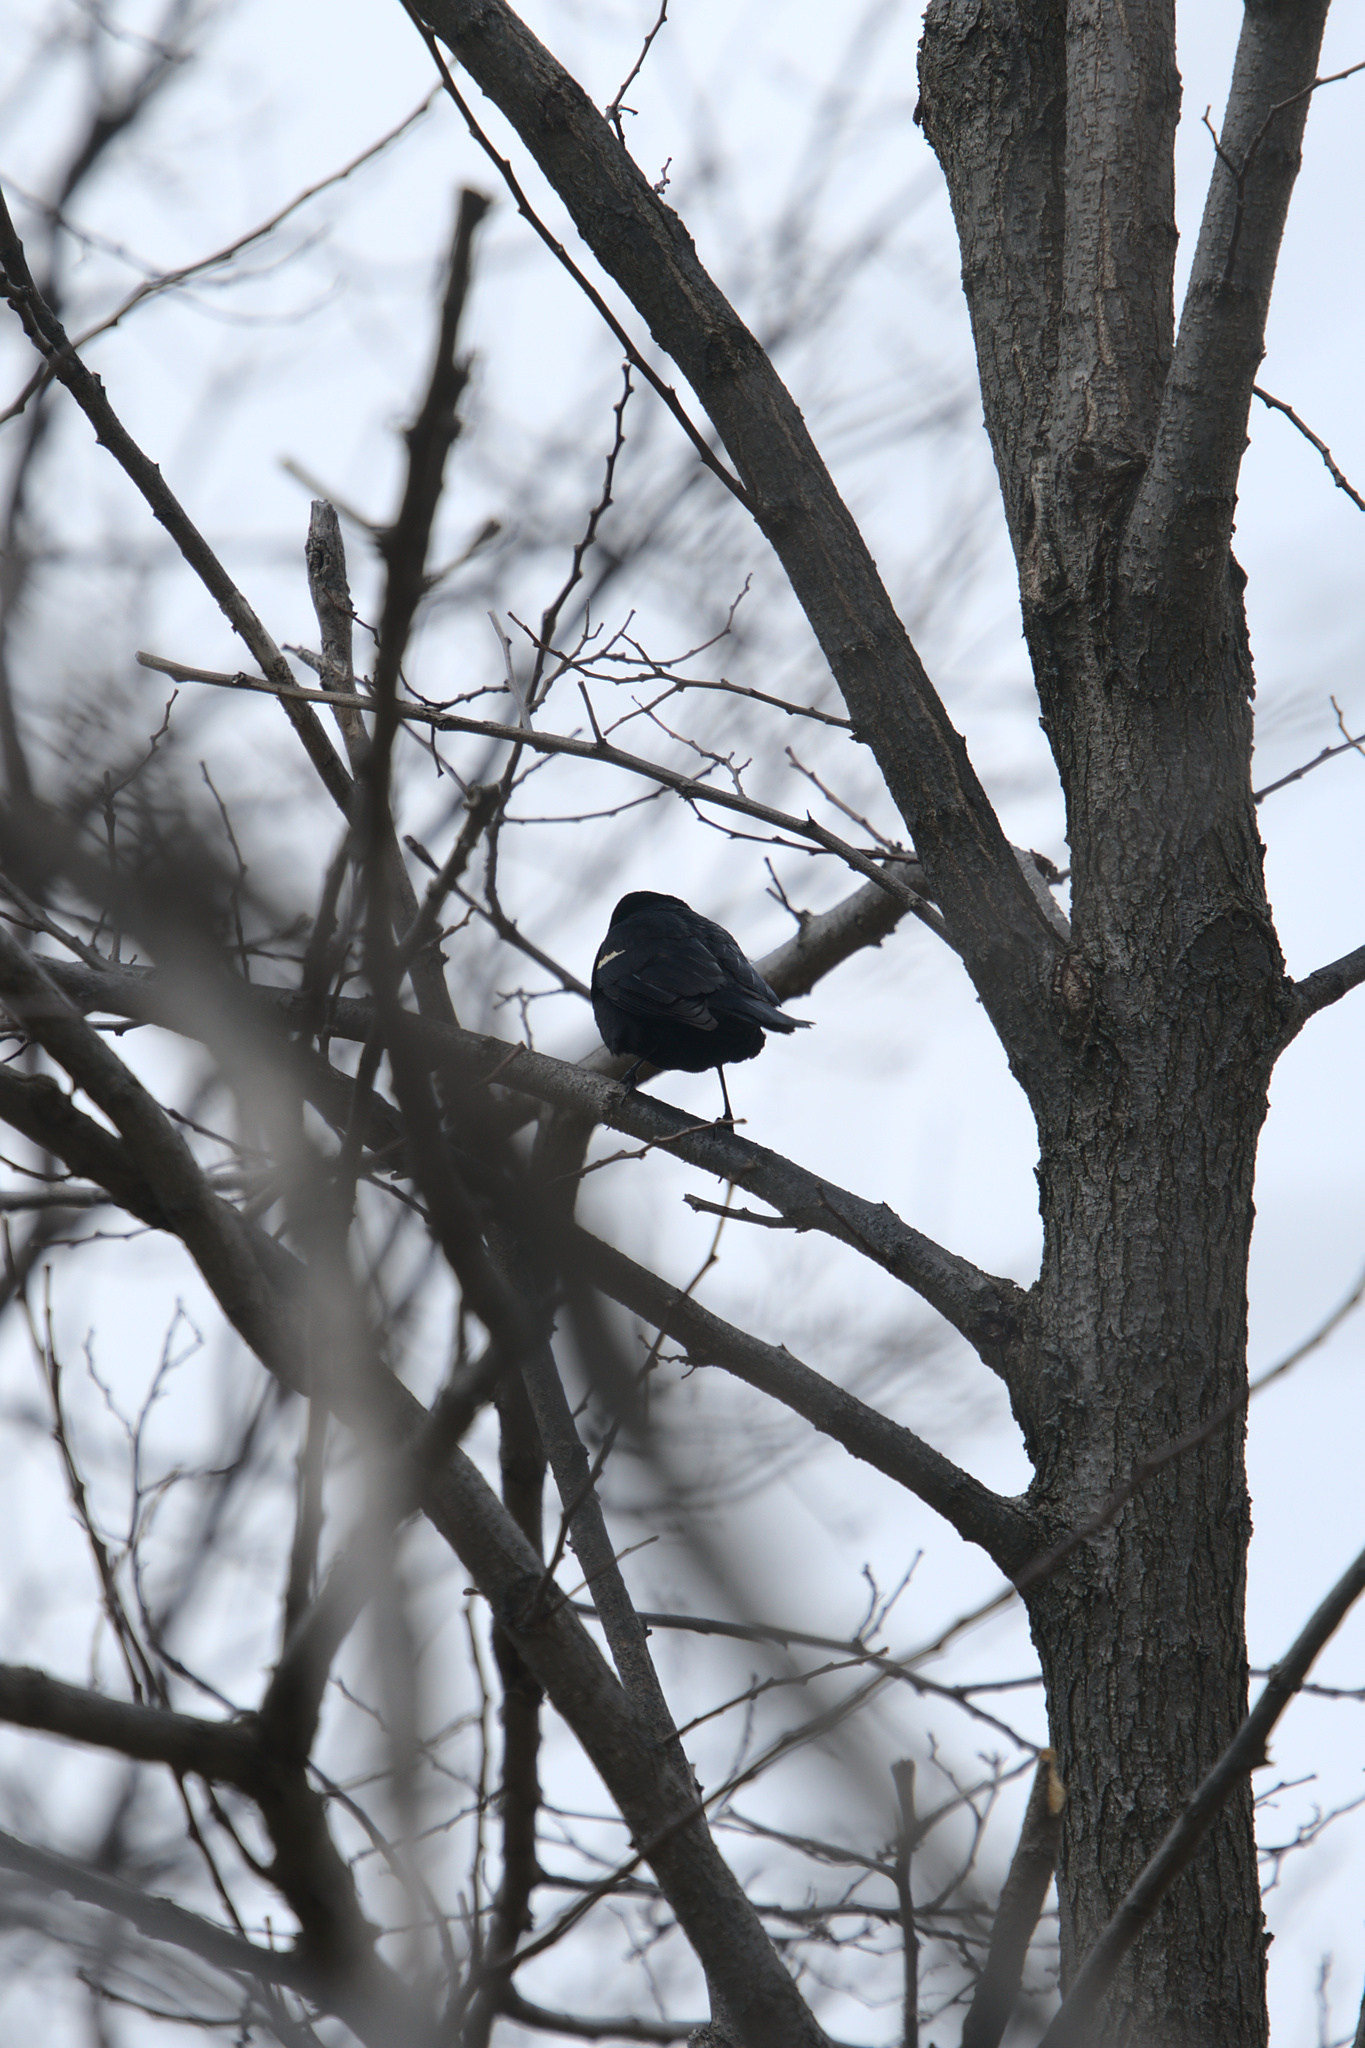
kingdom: Animalia
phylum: Chordata
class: Aves
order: Passeriformes
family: Icteridae
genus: Agelaius
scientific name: Agelaius phoeniceus
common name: Red-winged blackbird
